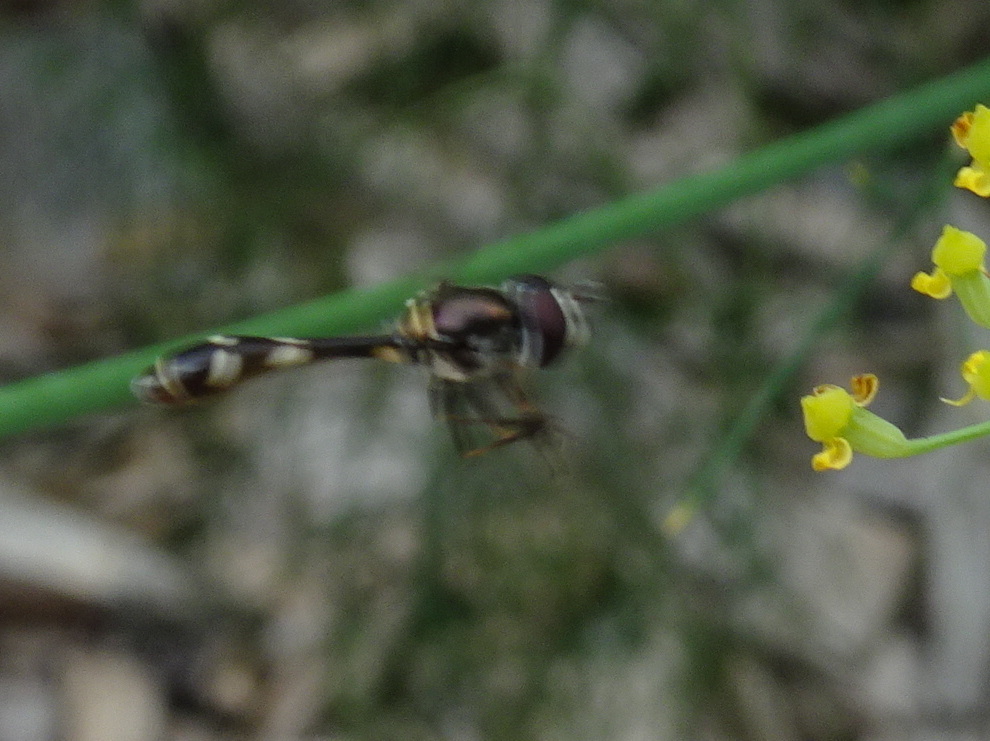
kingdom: Animalia
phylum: Arthropoda
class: Insecta
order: Diptera
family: Syrphidae
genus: Dioprosopa
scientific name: Dioprosopa clavatus
